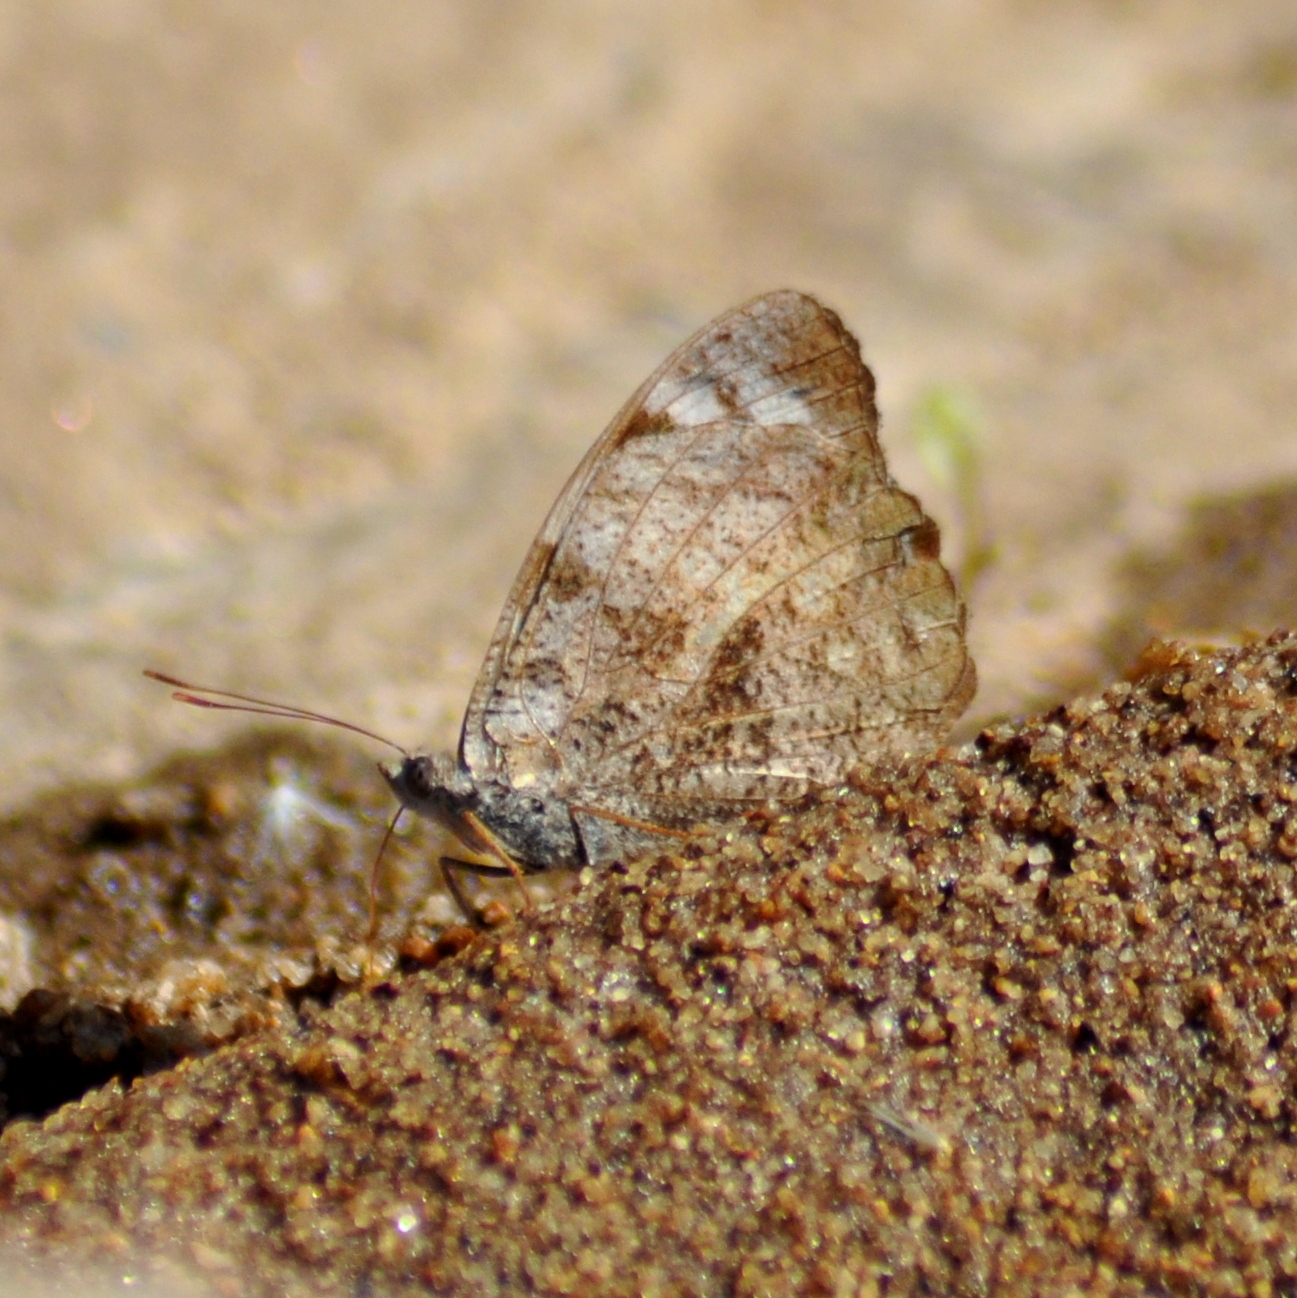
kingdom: Animalia
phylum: Arthropoda
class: Insecta
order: Lepidoptera
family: Nymphalidae
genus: Eunica
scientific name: Eunica eburnea
